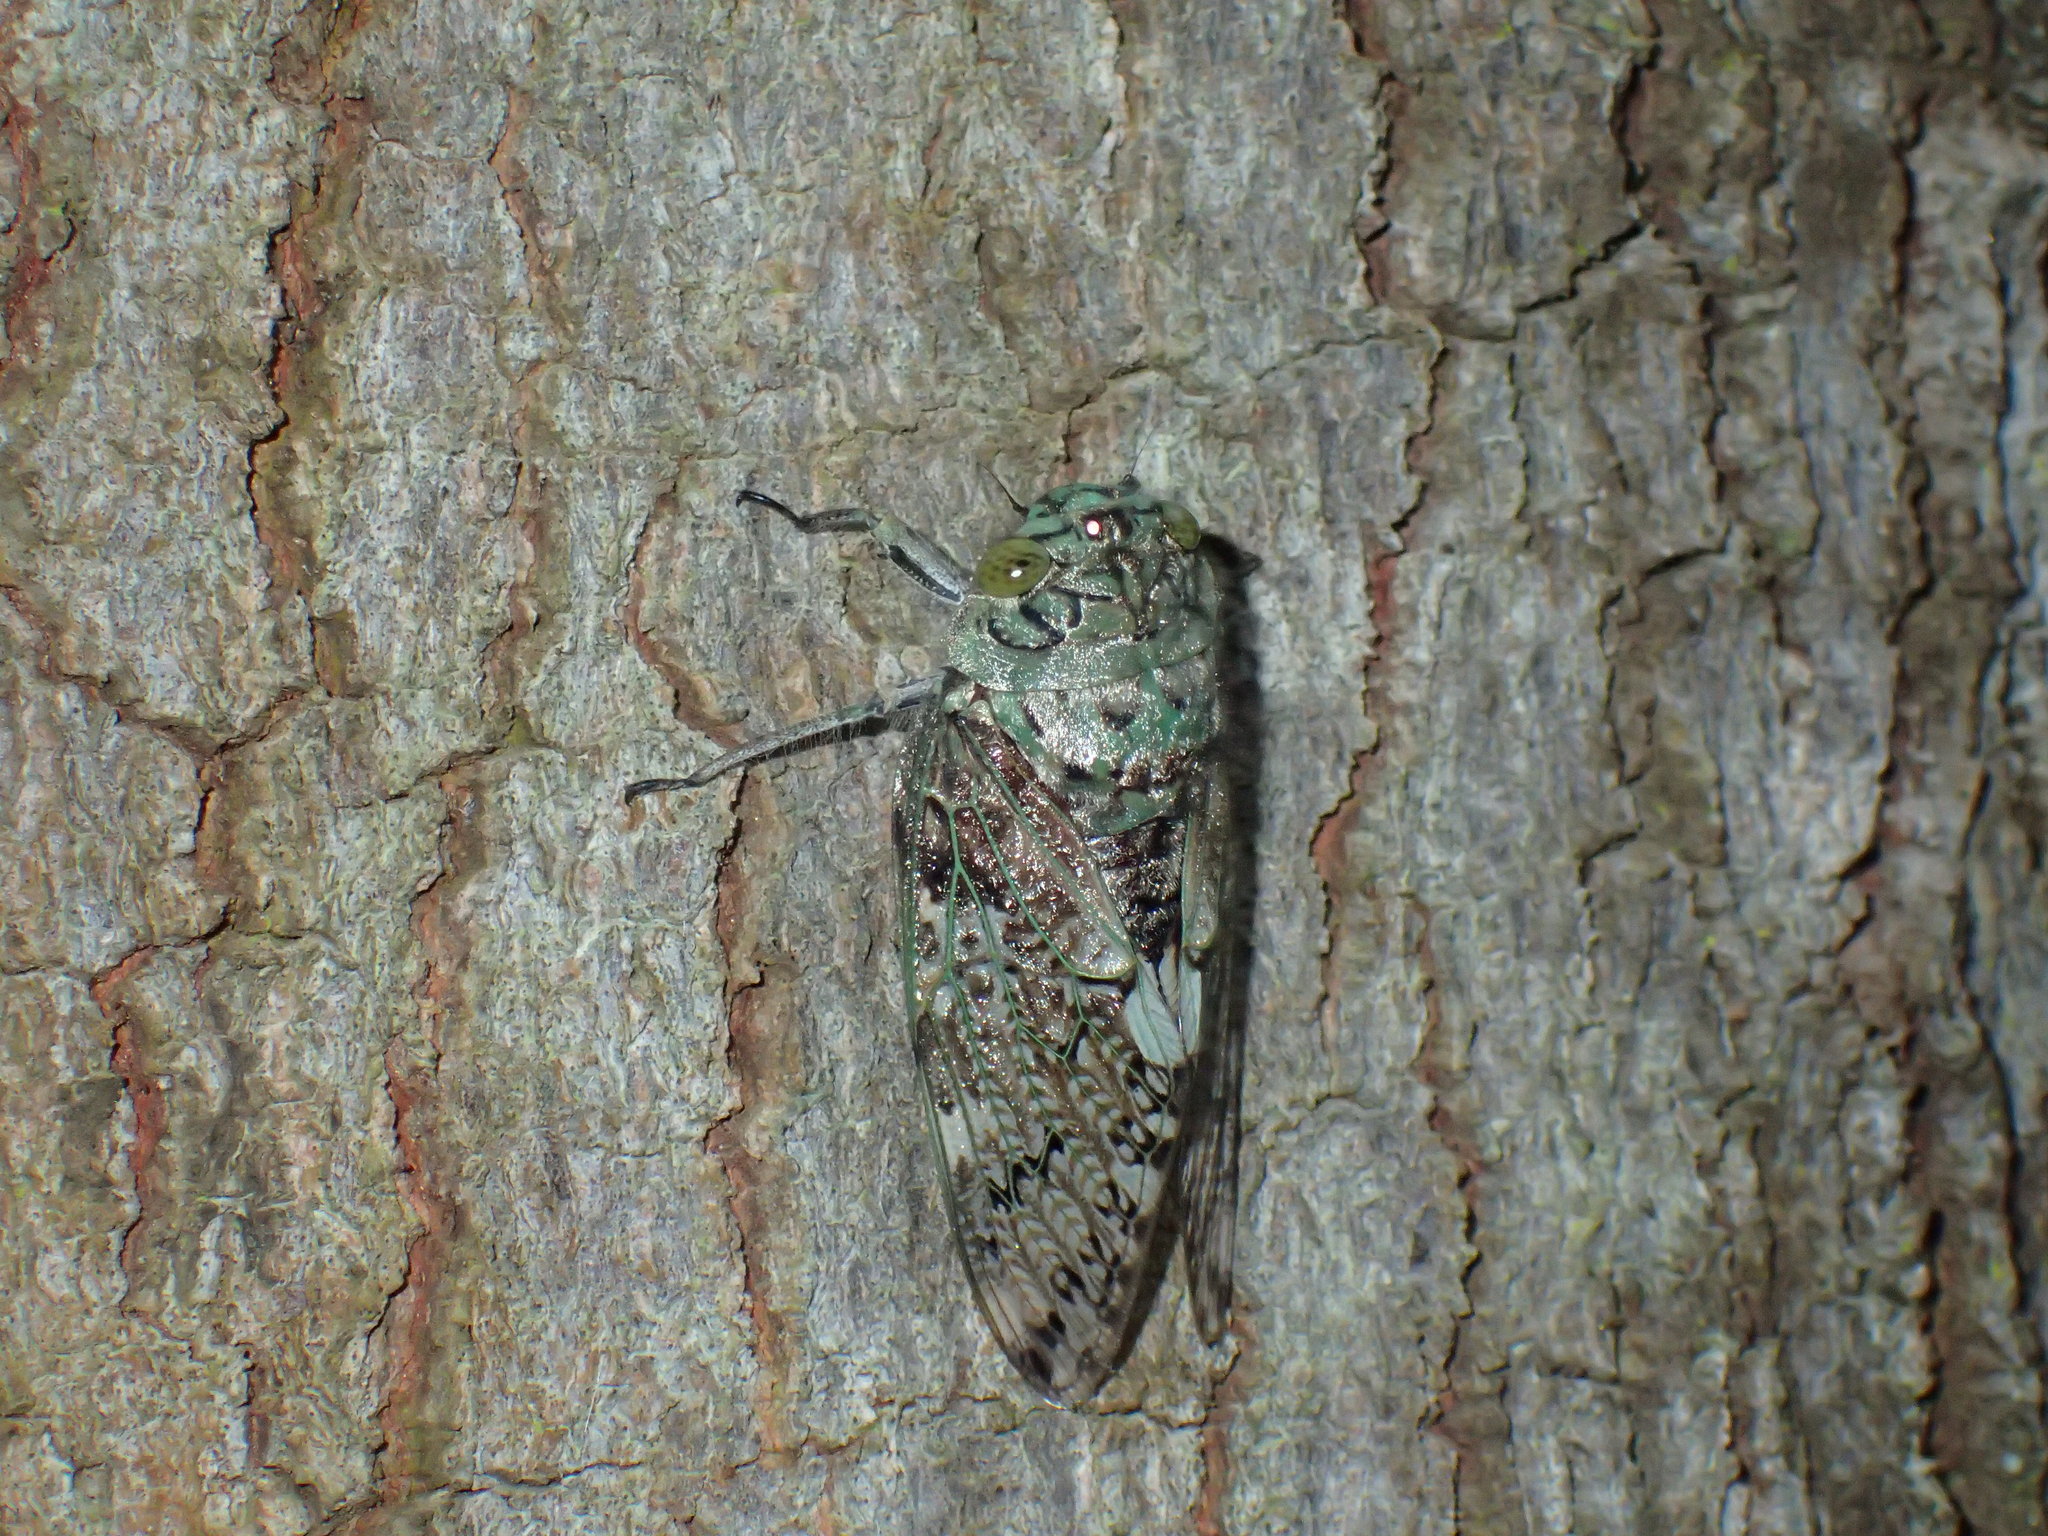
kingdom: Animalia
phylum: Arthropoda
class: Insecta
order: Hemiptera
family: Cicadidae
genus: Platypleura
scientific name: Platypleura brunea
